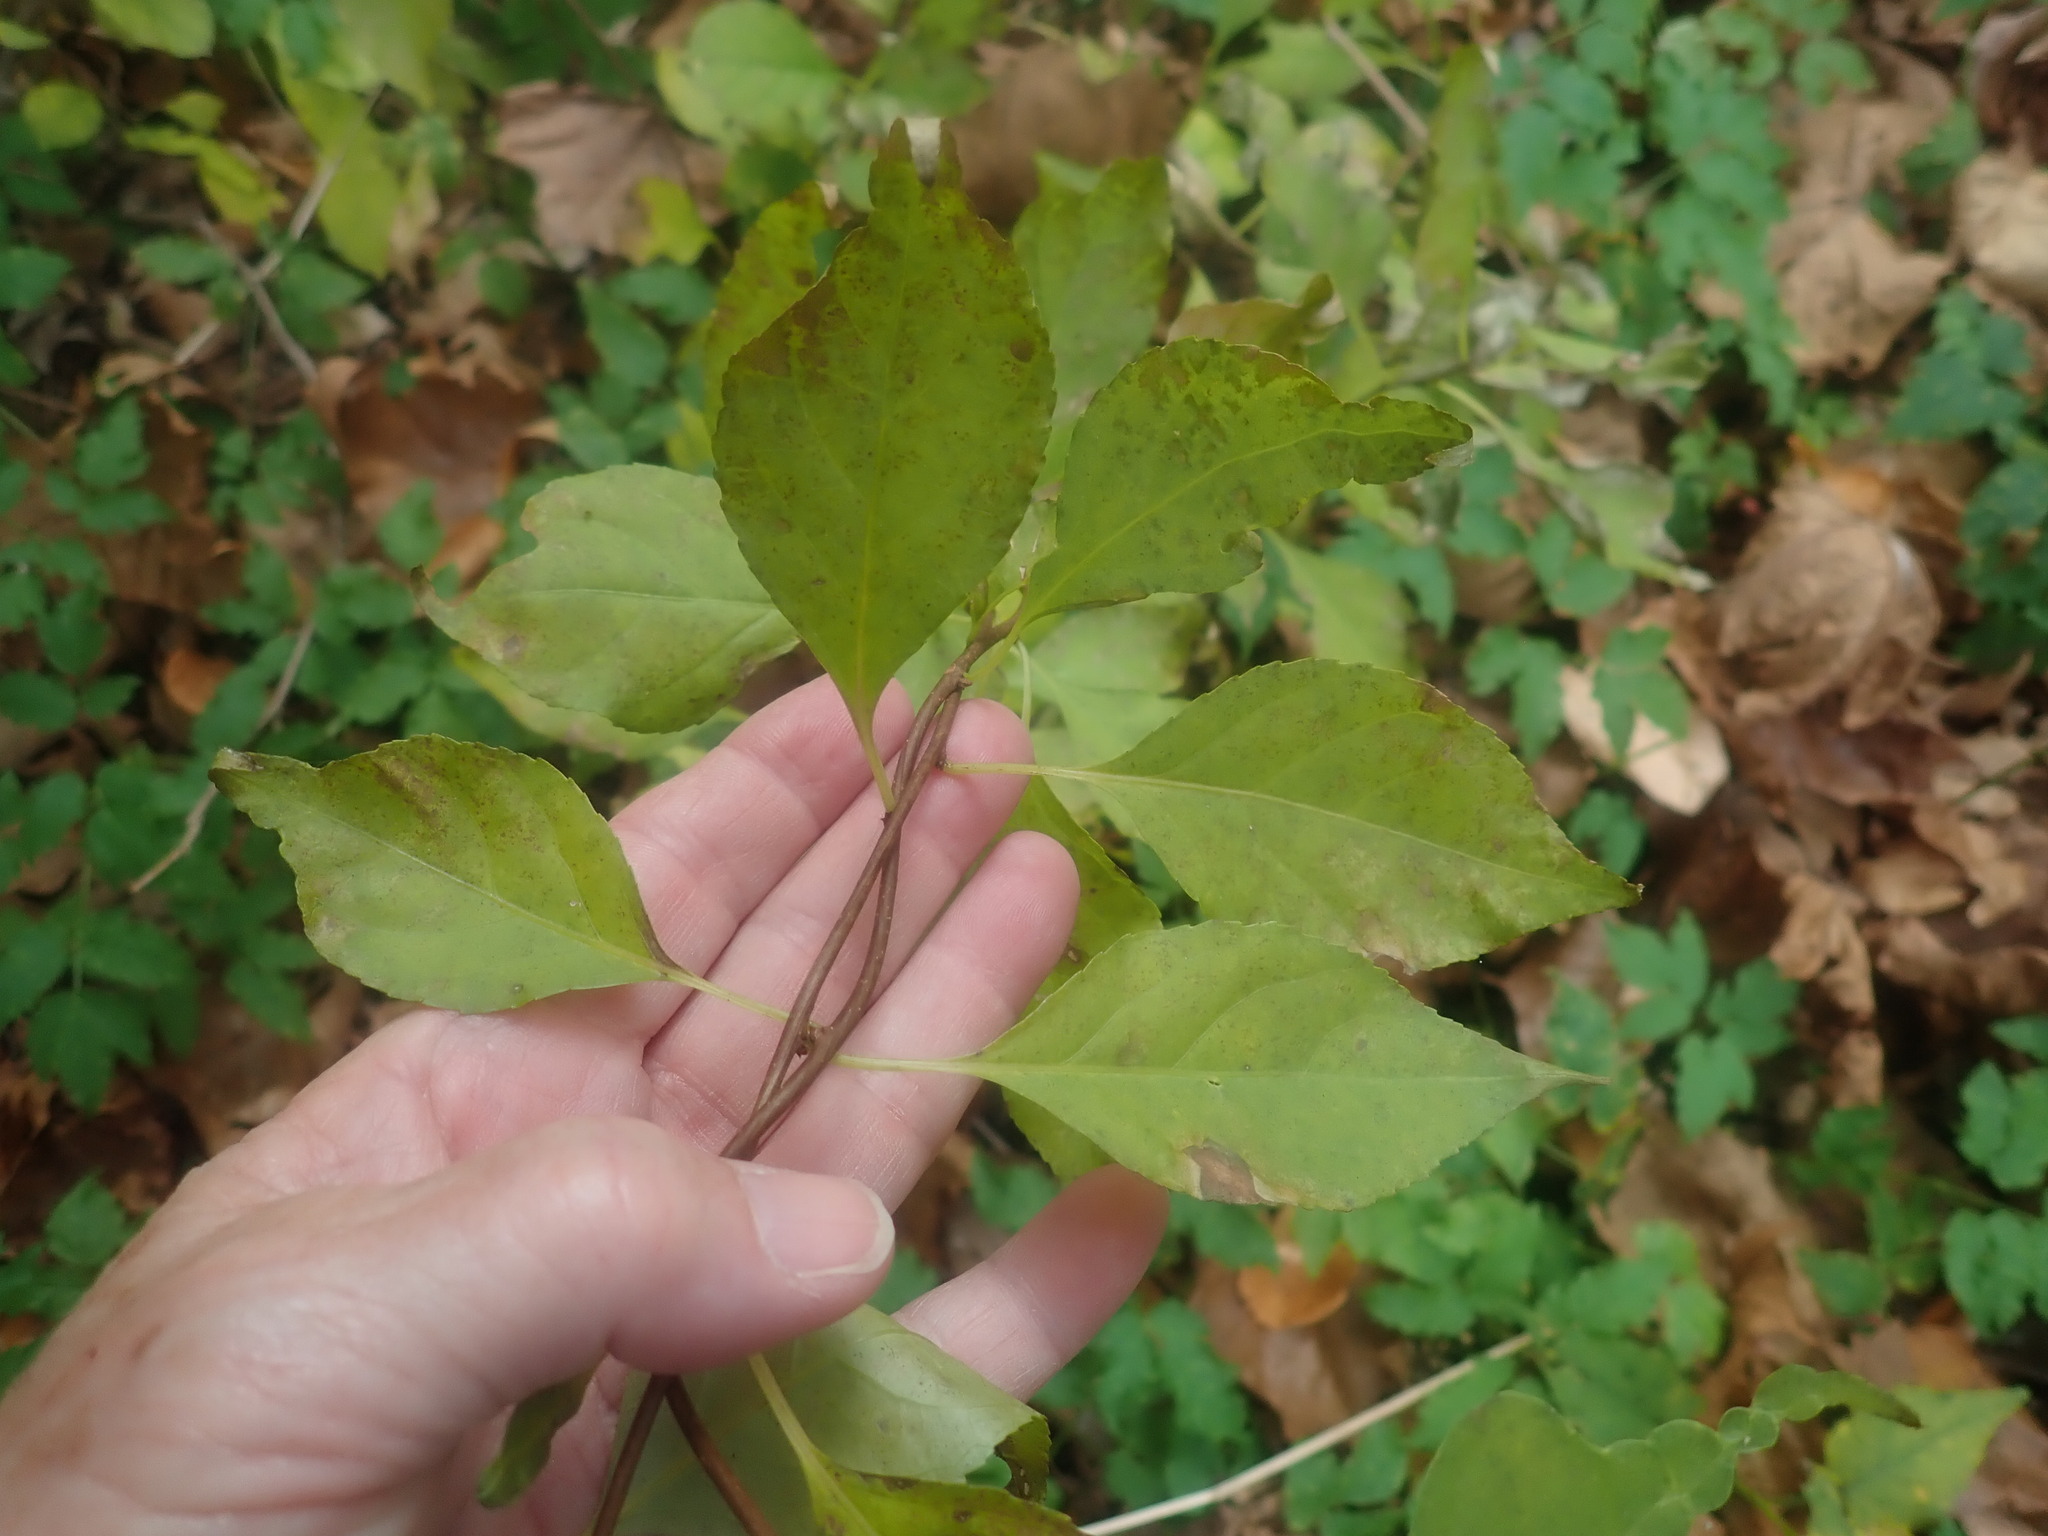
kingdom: Plantae
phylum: Tracheophyta
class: Magnoliopsida
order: Celastrales
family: Celastraceae
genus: Celastrus
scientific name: Celastrus orbiculatus
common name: Oriental bittersweet
